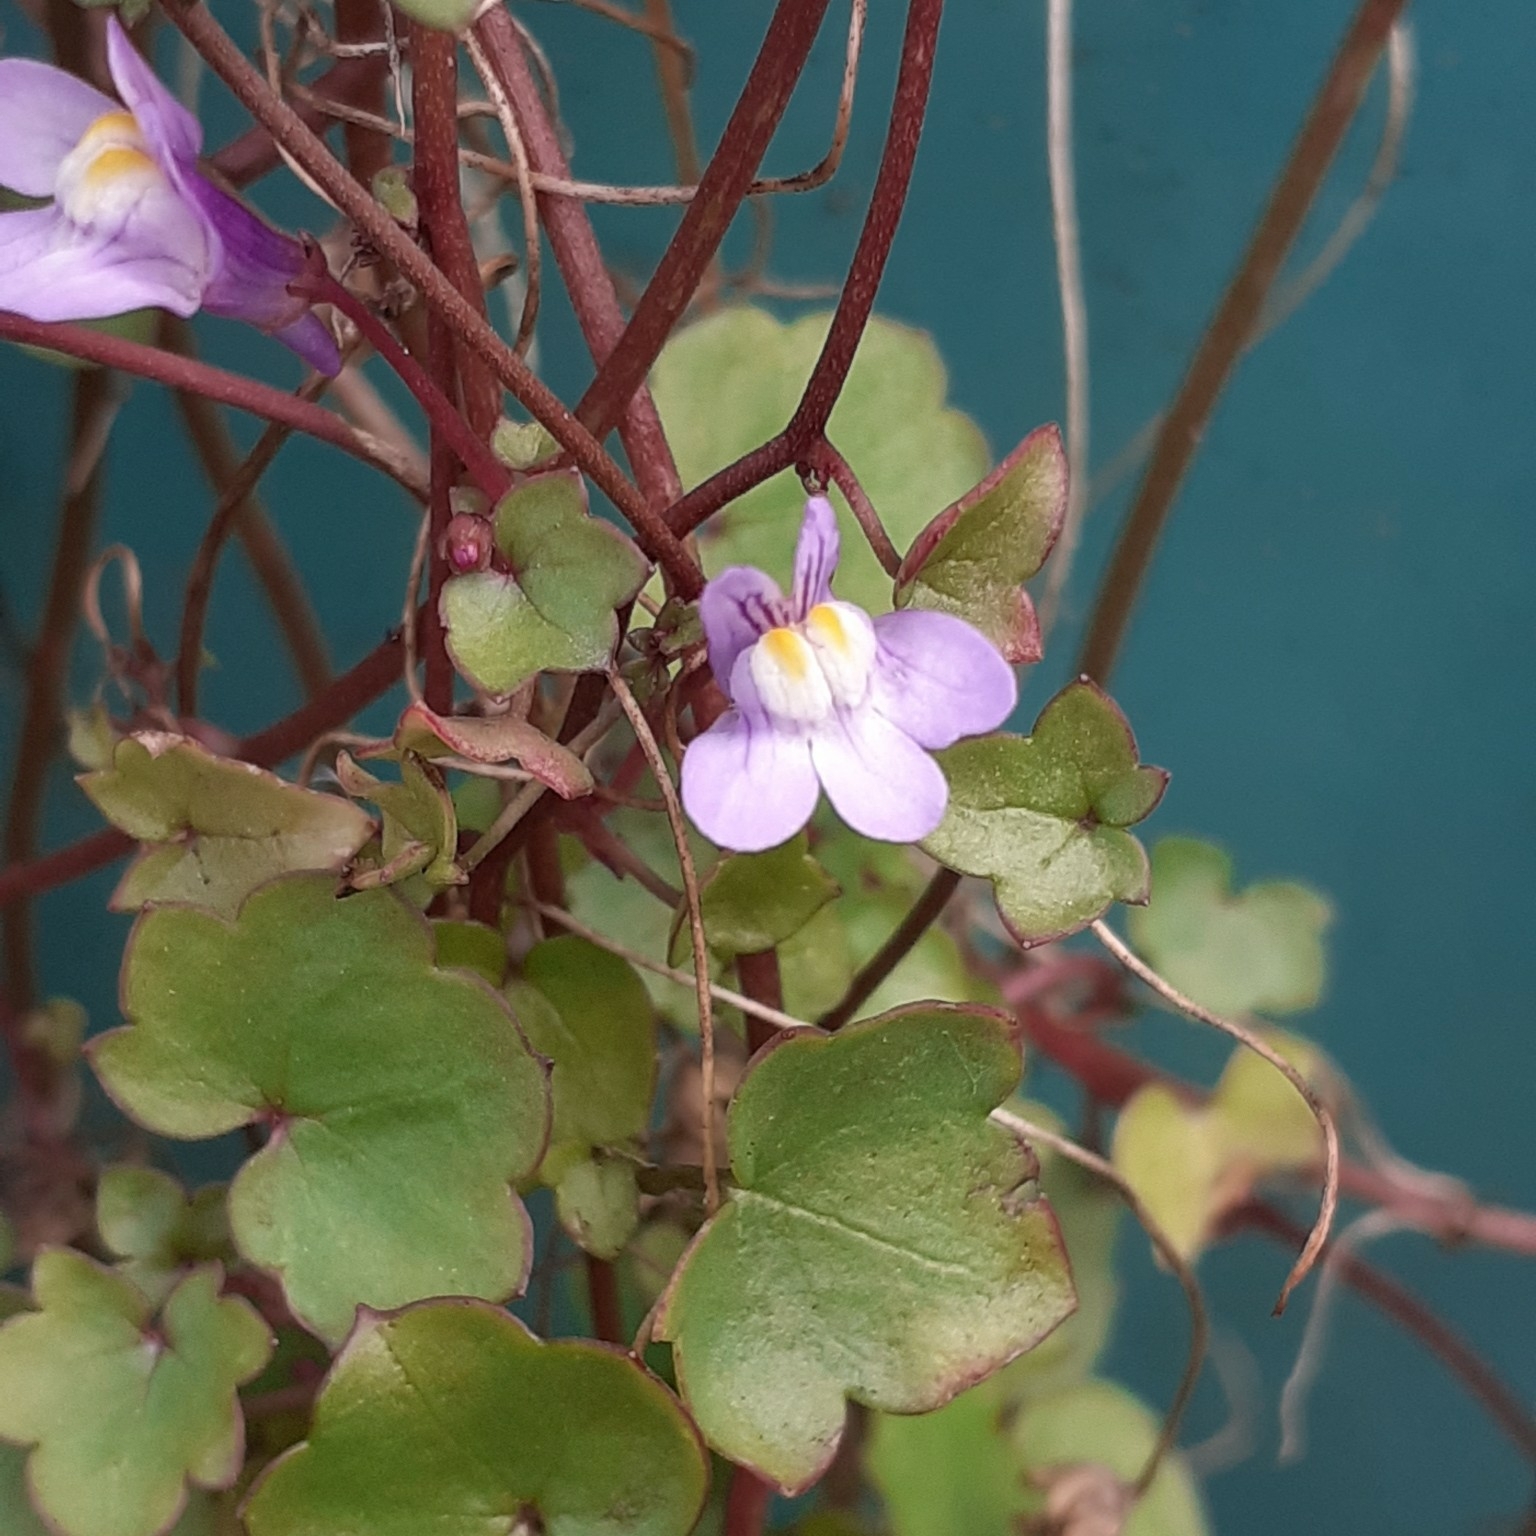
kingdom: Plantae
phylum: Tracheophyta
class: Magnoliopsida
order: Lamiales
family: Plantaginaceae
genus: Cymbalaria
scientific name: Cymbalaria muralis
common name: Ivy-leaved toadflax
